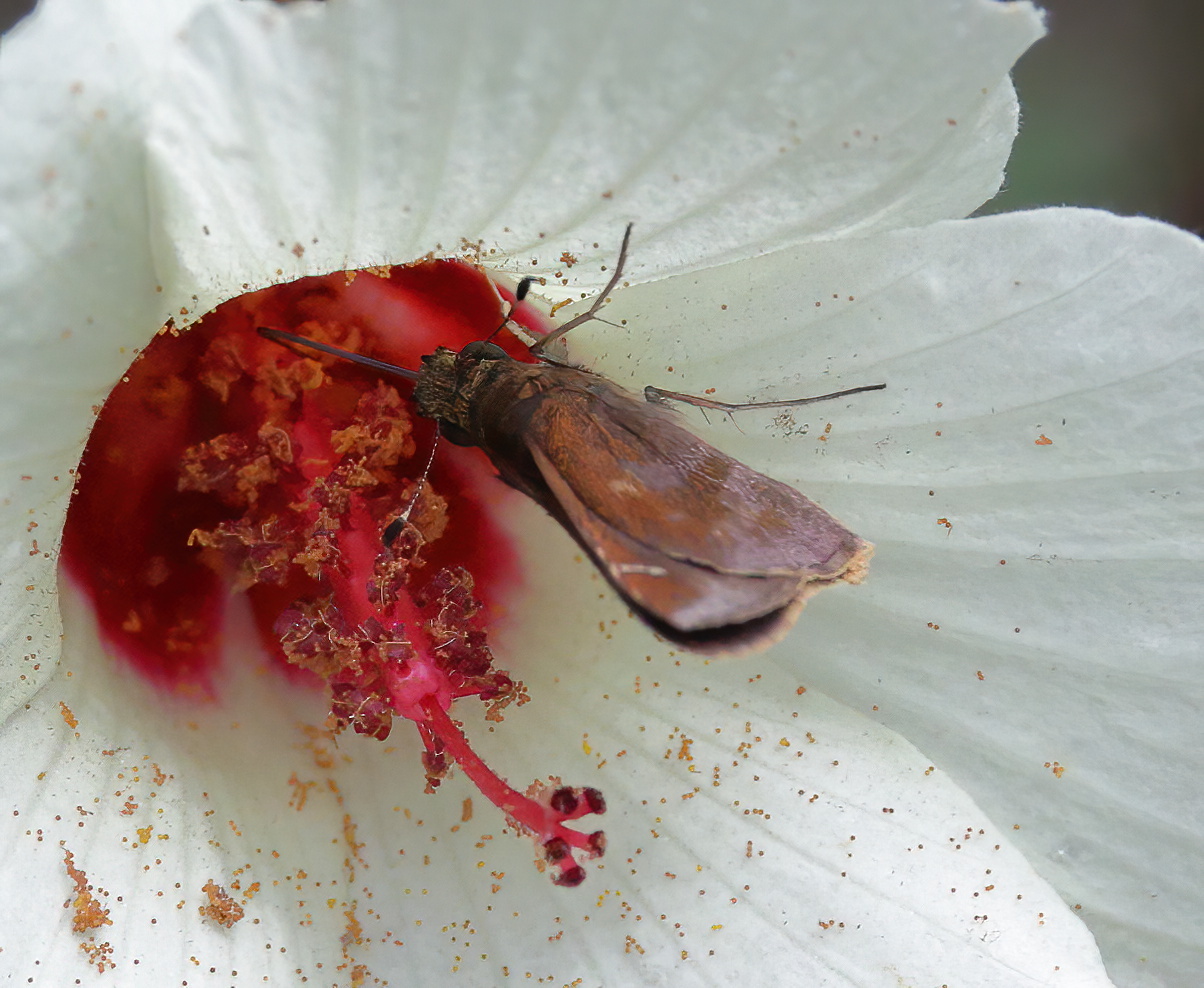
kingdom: Animalia
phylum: Arthropoda
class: Insecta
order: Lepidoptera
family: Hesperiidae
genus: Lerema
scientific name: Lerema accius
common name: Clouded skipper
